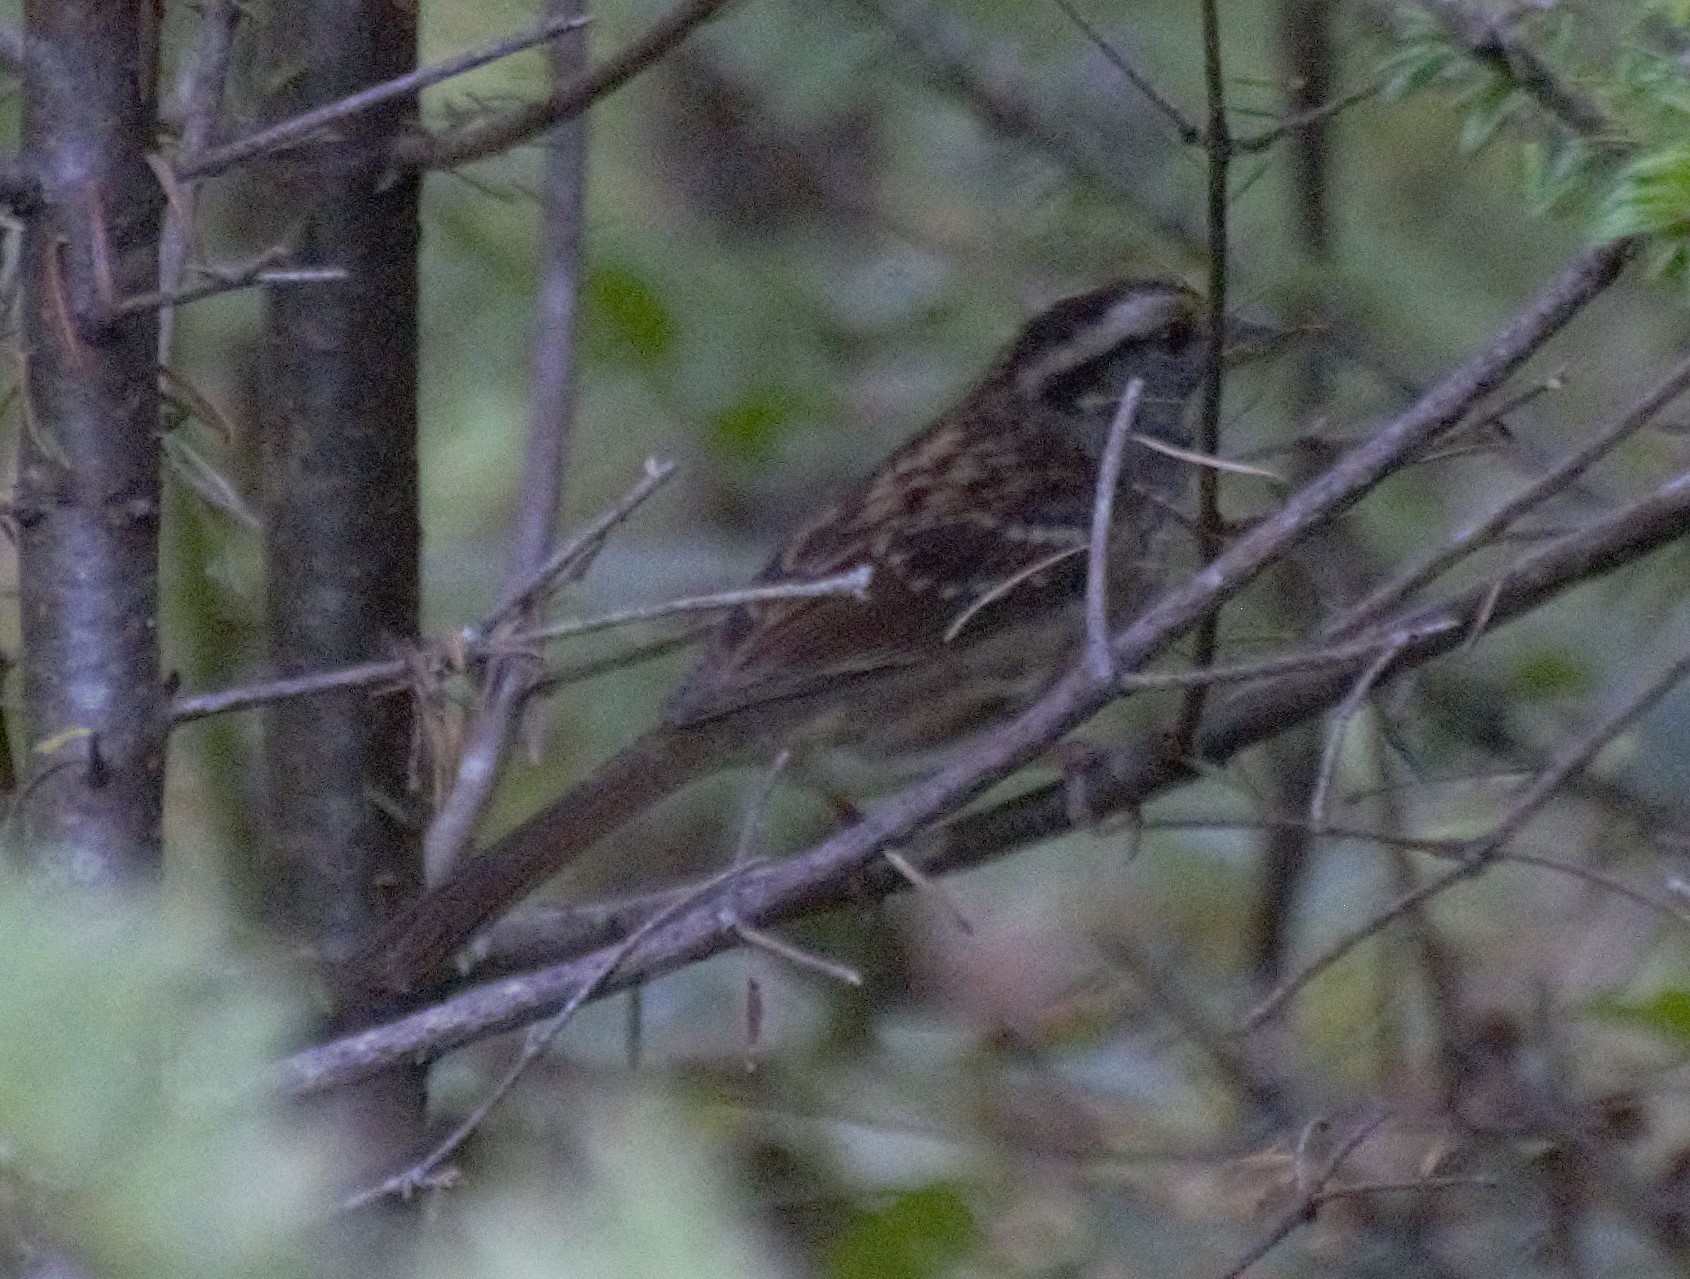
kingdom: Animalia
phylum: Chordata
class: Aves
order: Passeriformes
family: Passerellidae
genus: Zonotrichia
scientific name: Zonotrichia albicollis
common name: White-throated sparrow
